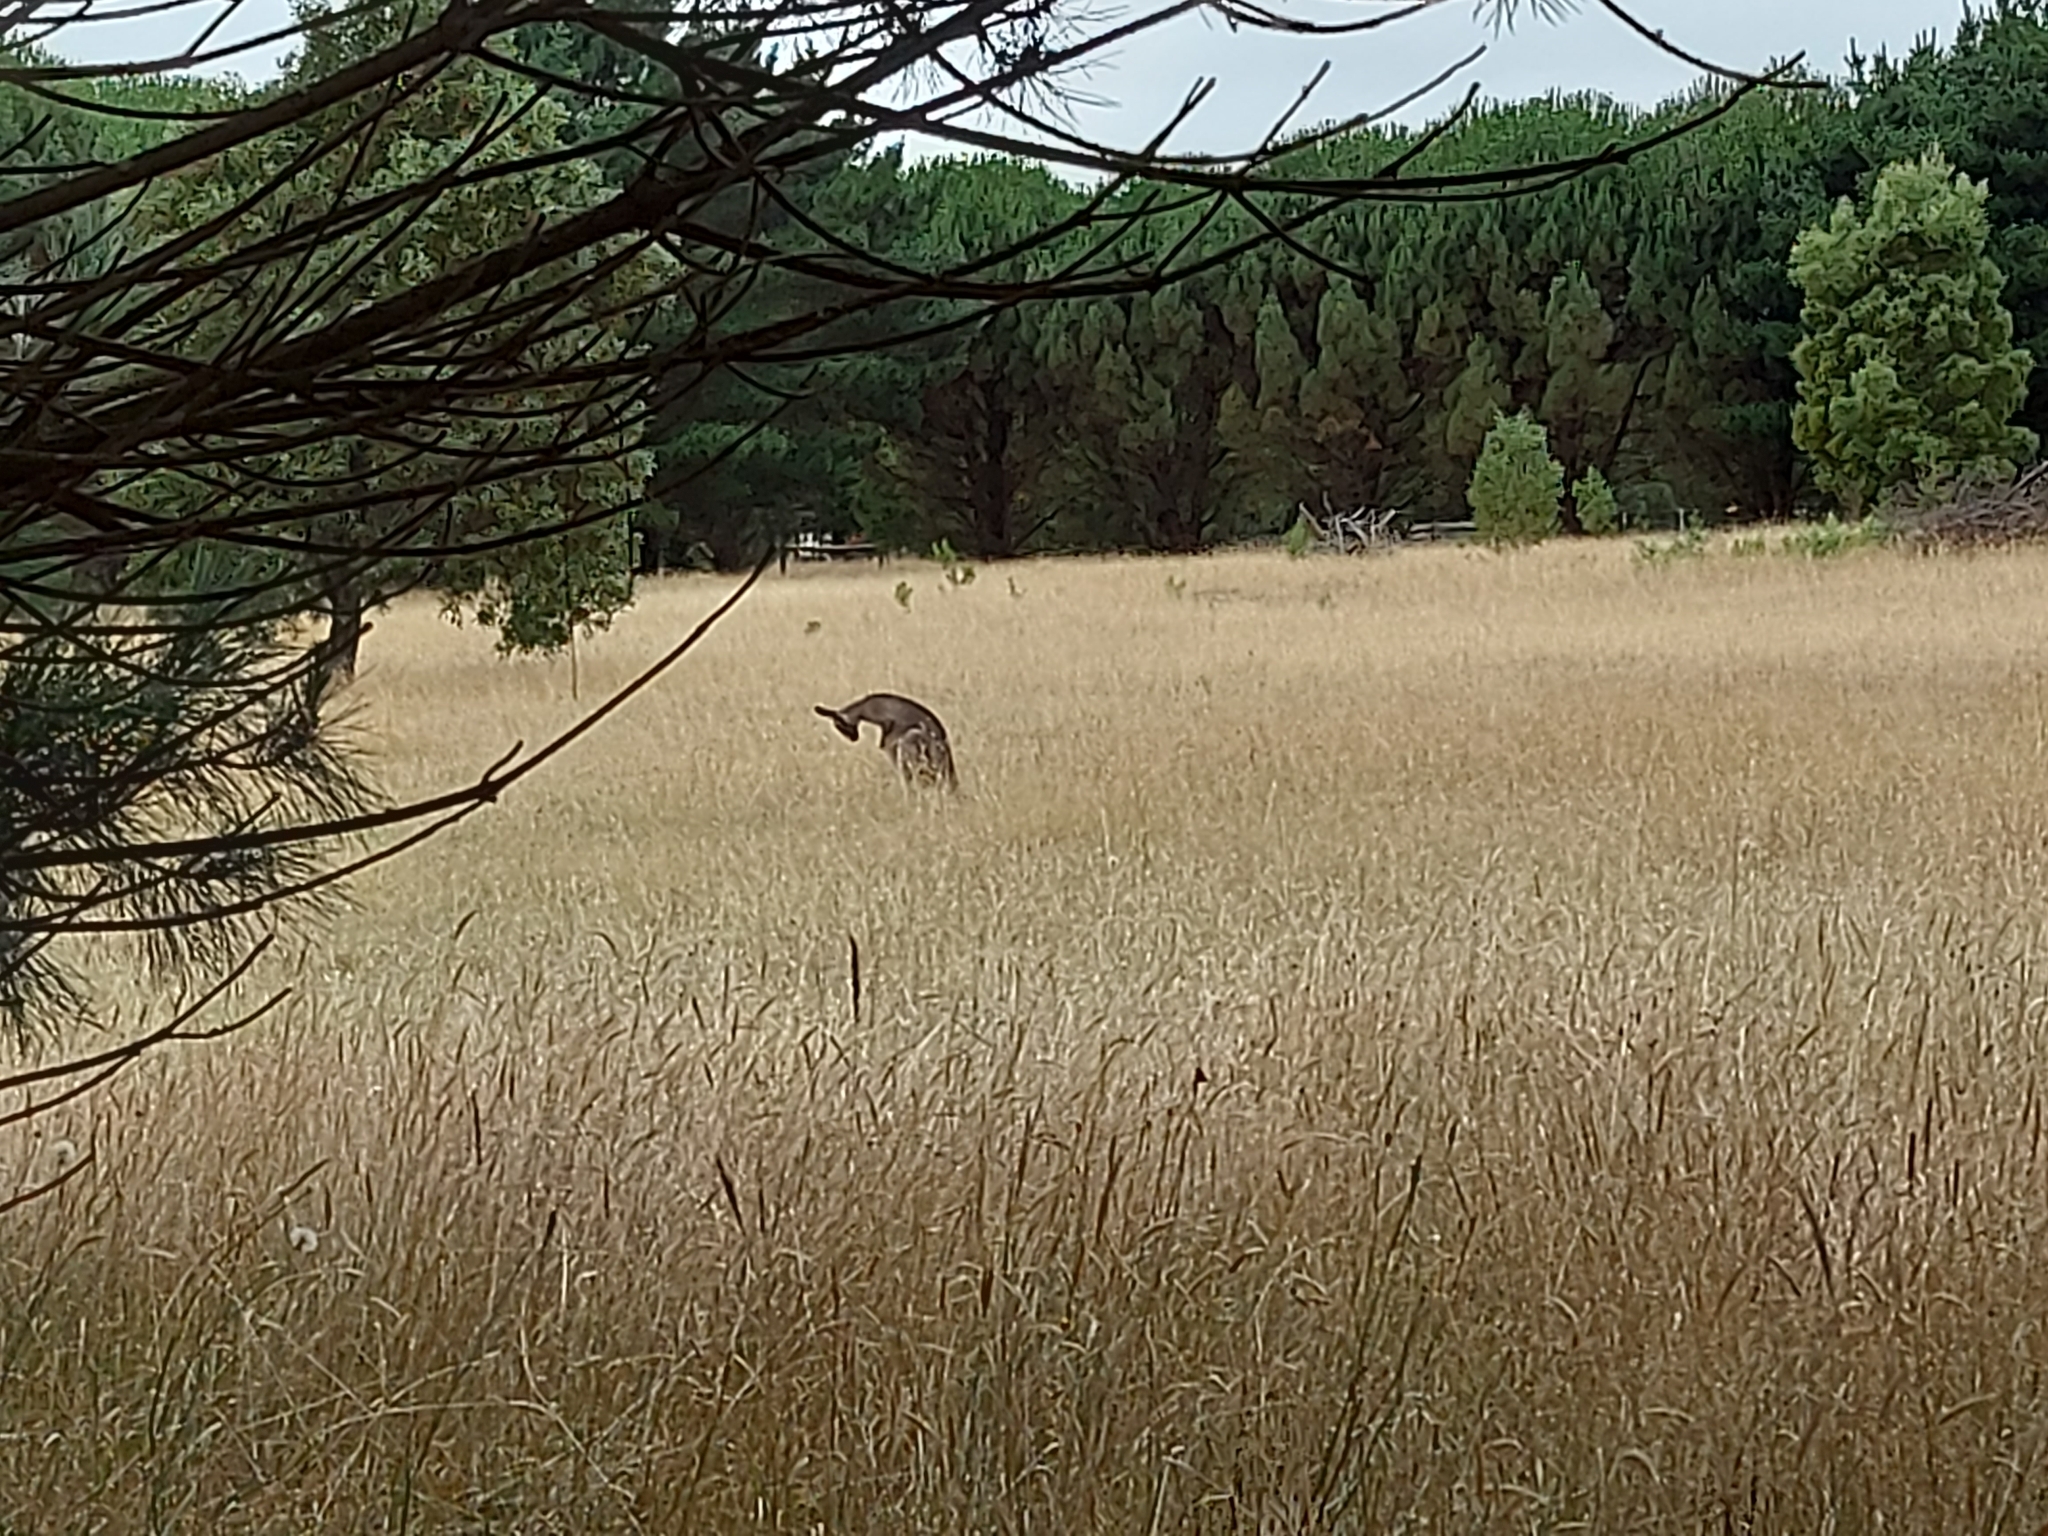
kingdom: Animalia
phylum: Chordata
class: Mammalia
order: Diprotodontia
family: Macropodidae
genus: Macropus
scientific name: Macropus giganteus
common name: Eastern grey kangaroo
